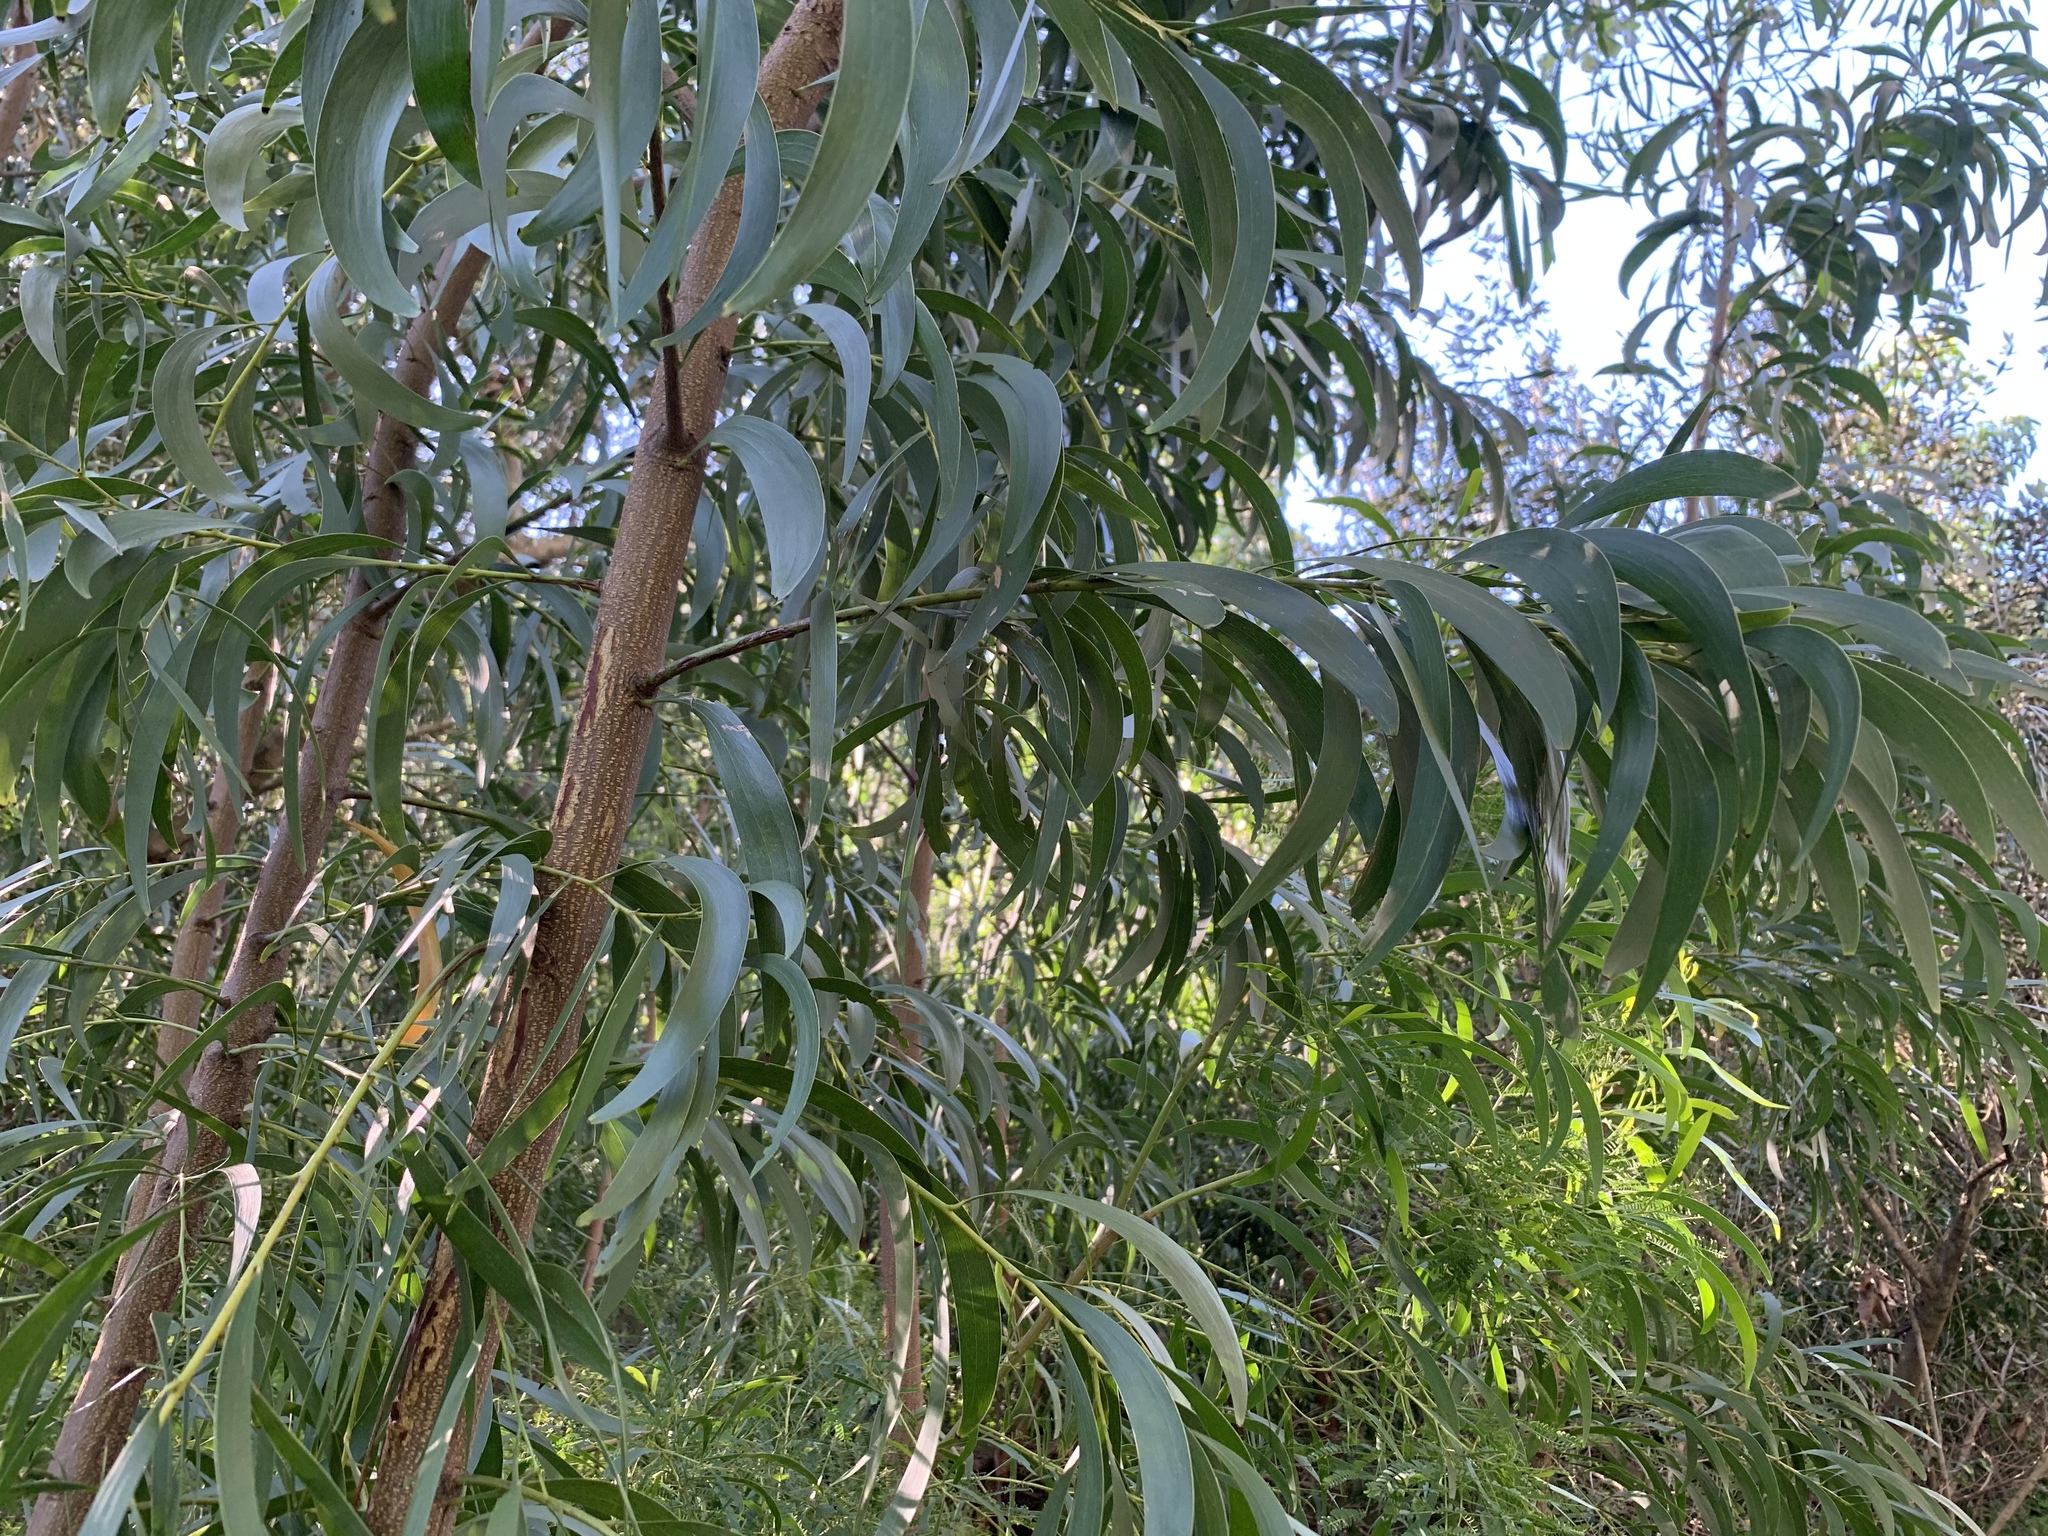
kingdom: Plantae
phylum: Tracheophyta
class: Magnoliopsida
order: Fabales
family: Fabaceae
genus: Acacia
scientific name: Acacia implexa
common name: Black wattle
